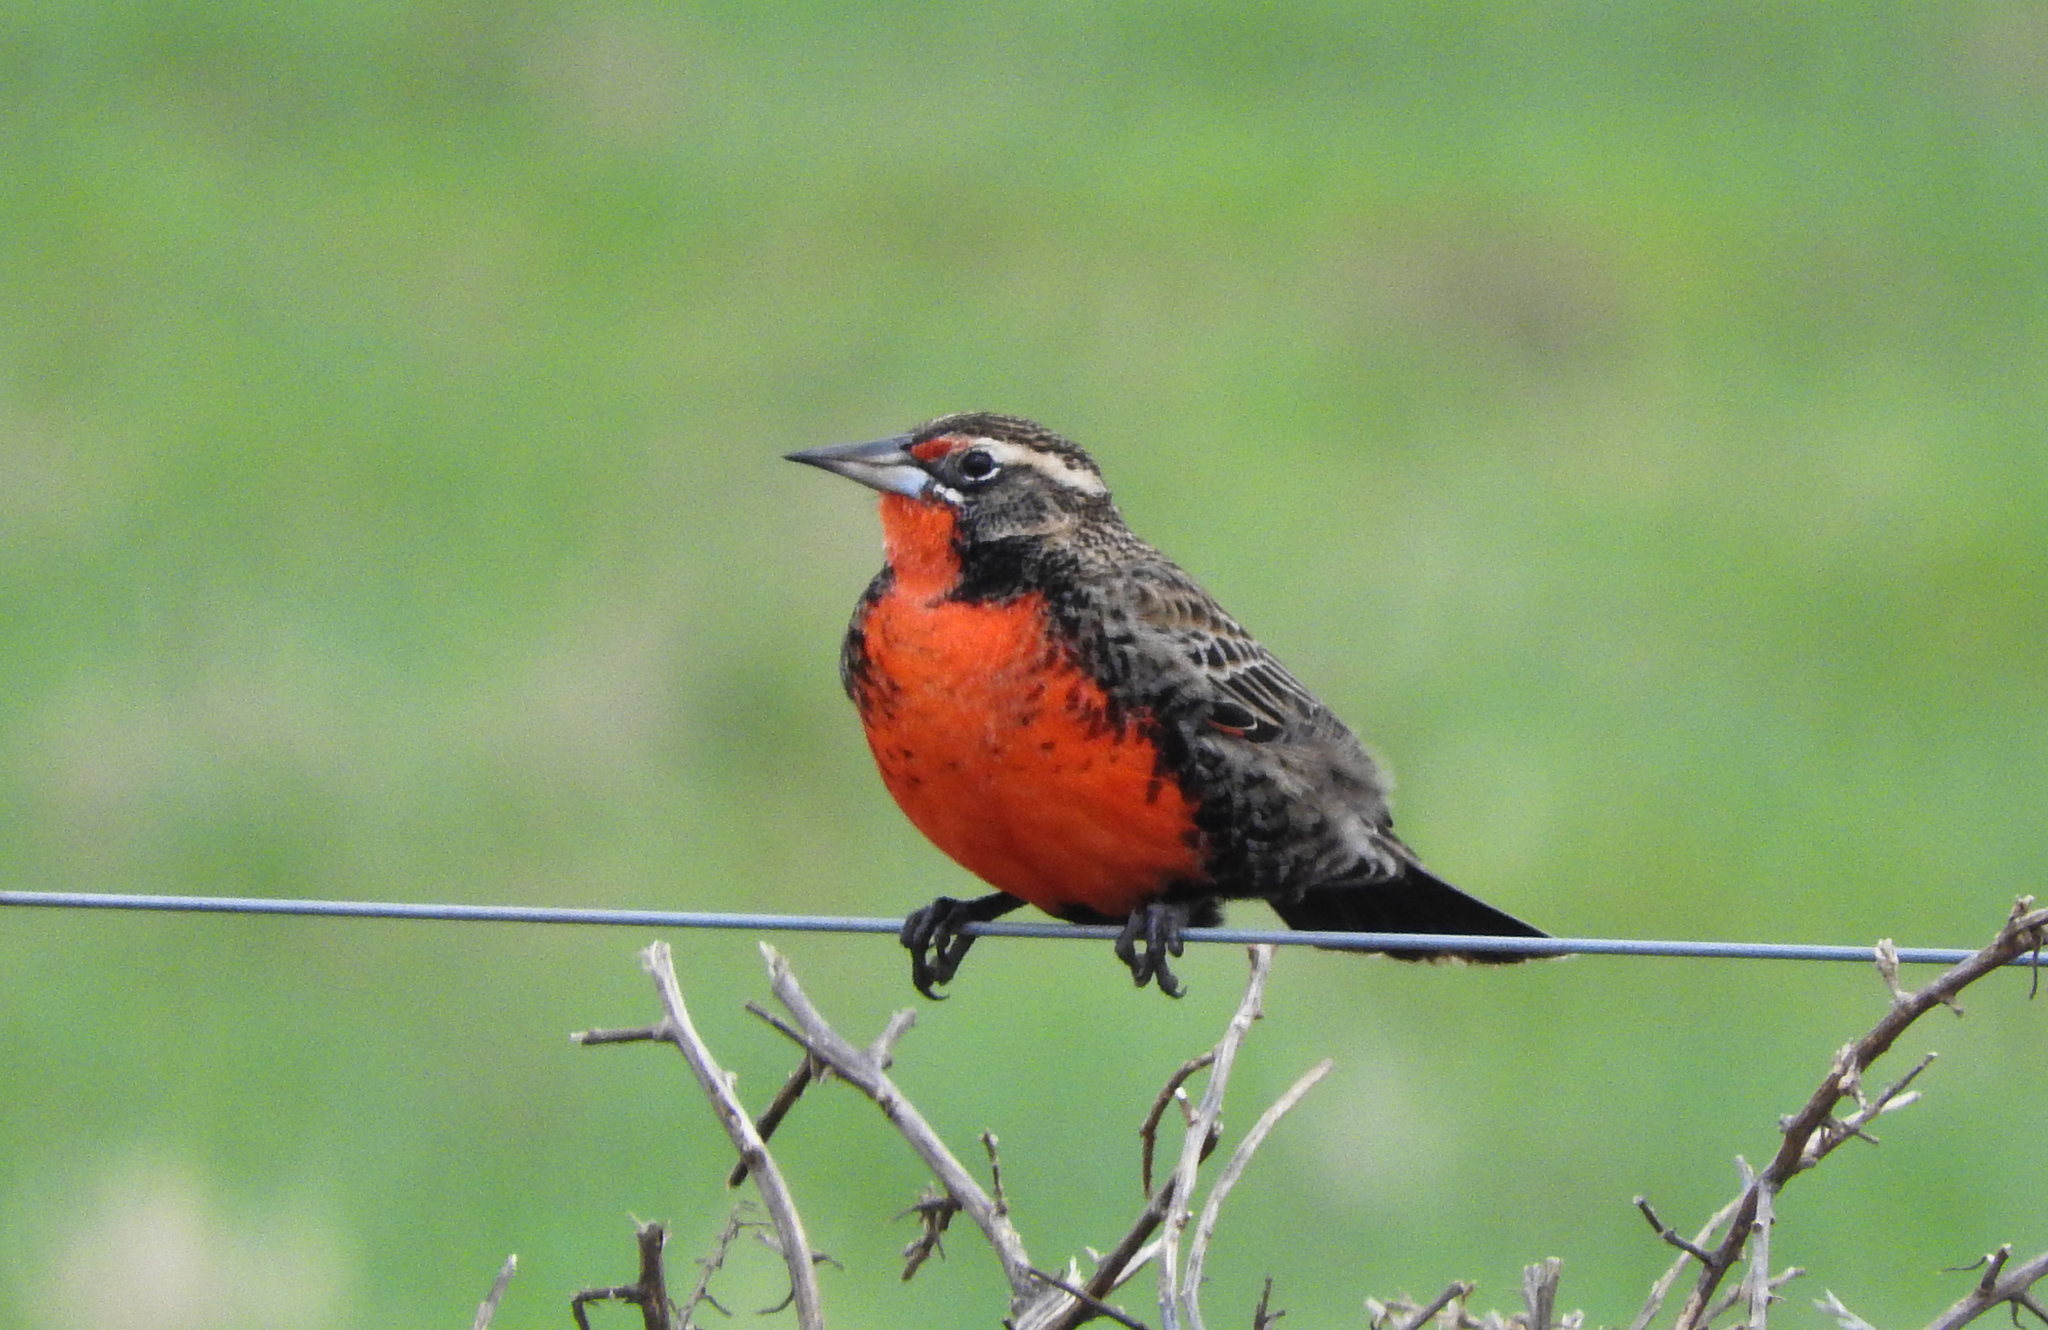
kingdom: Animalia
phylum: Chordata
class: Aves
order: Passeriformes
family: Icteridae
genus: Sturnella
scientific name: Sturnella defilippii
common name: Pampas meadowlark
